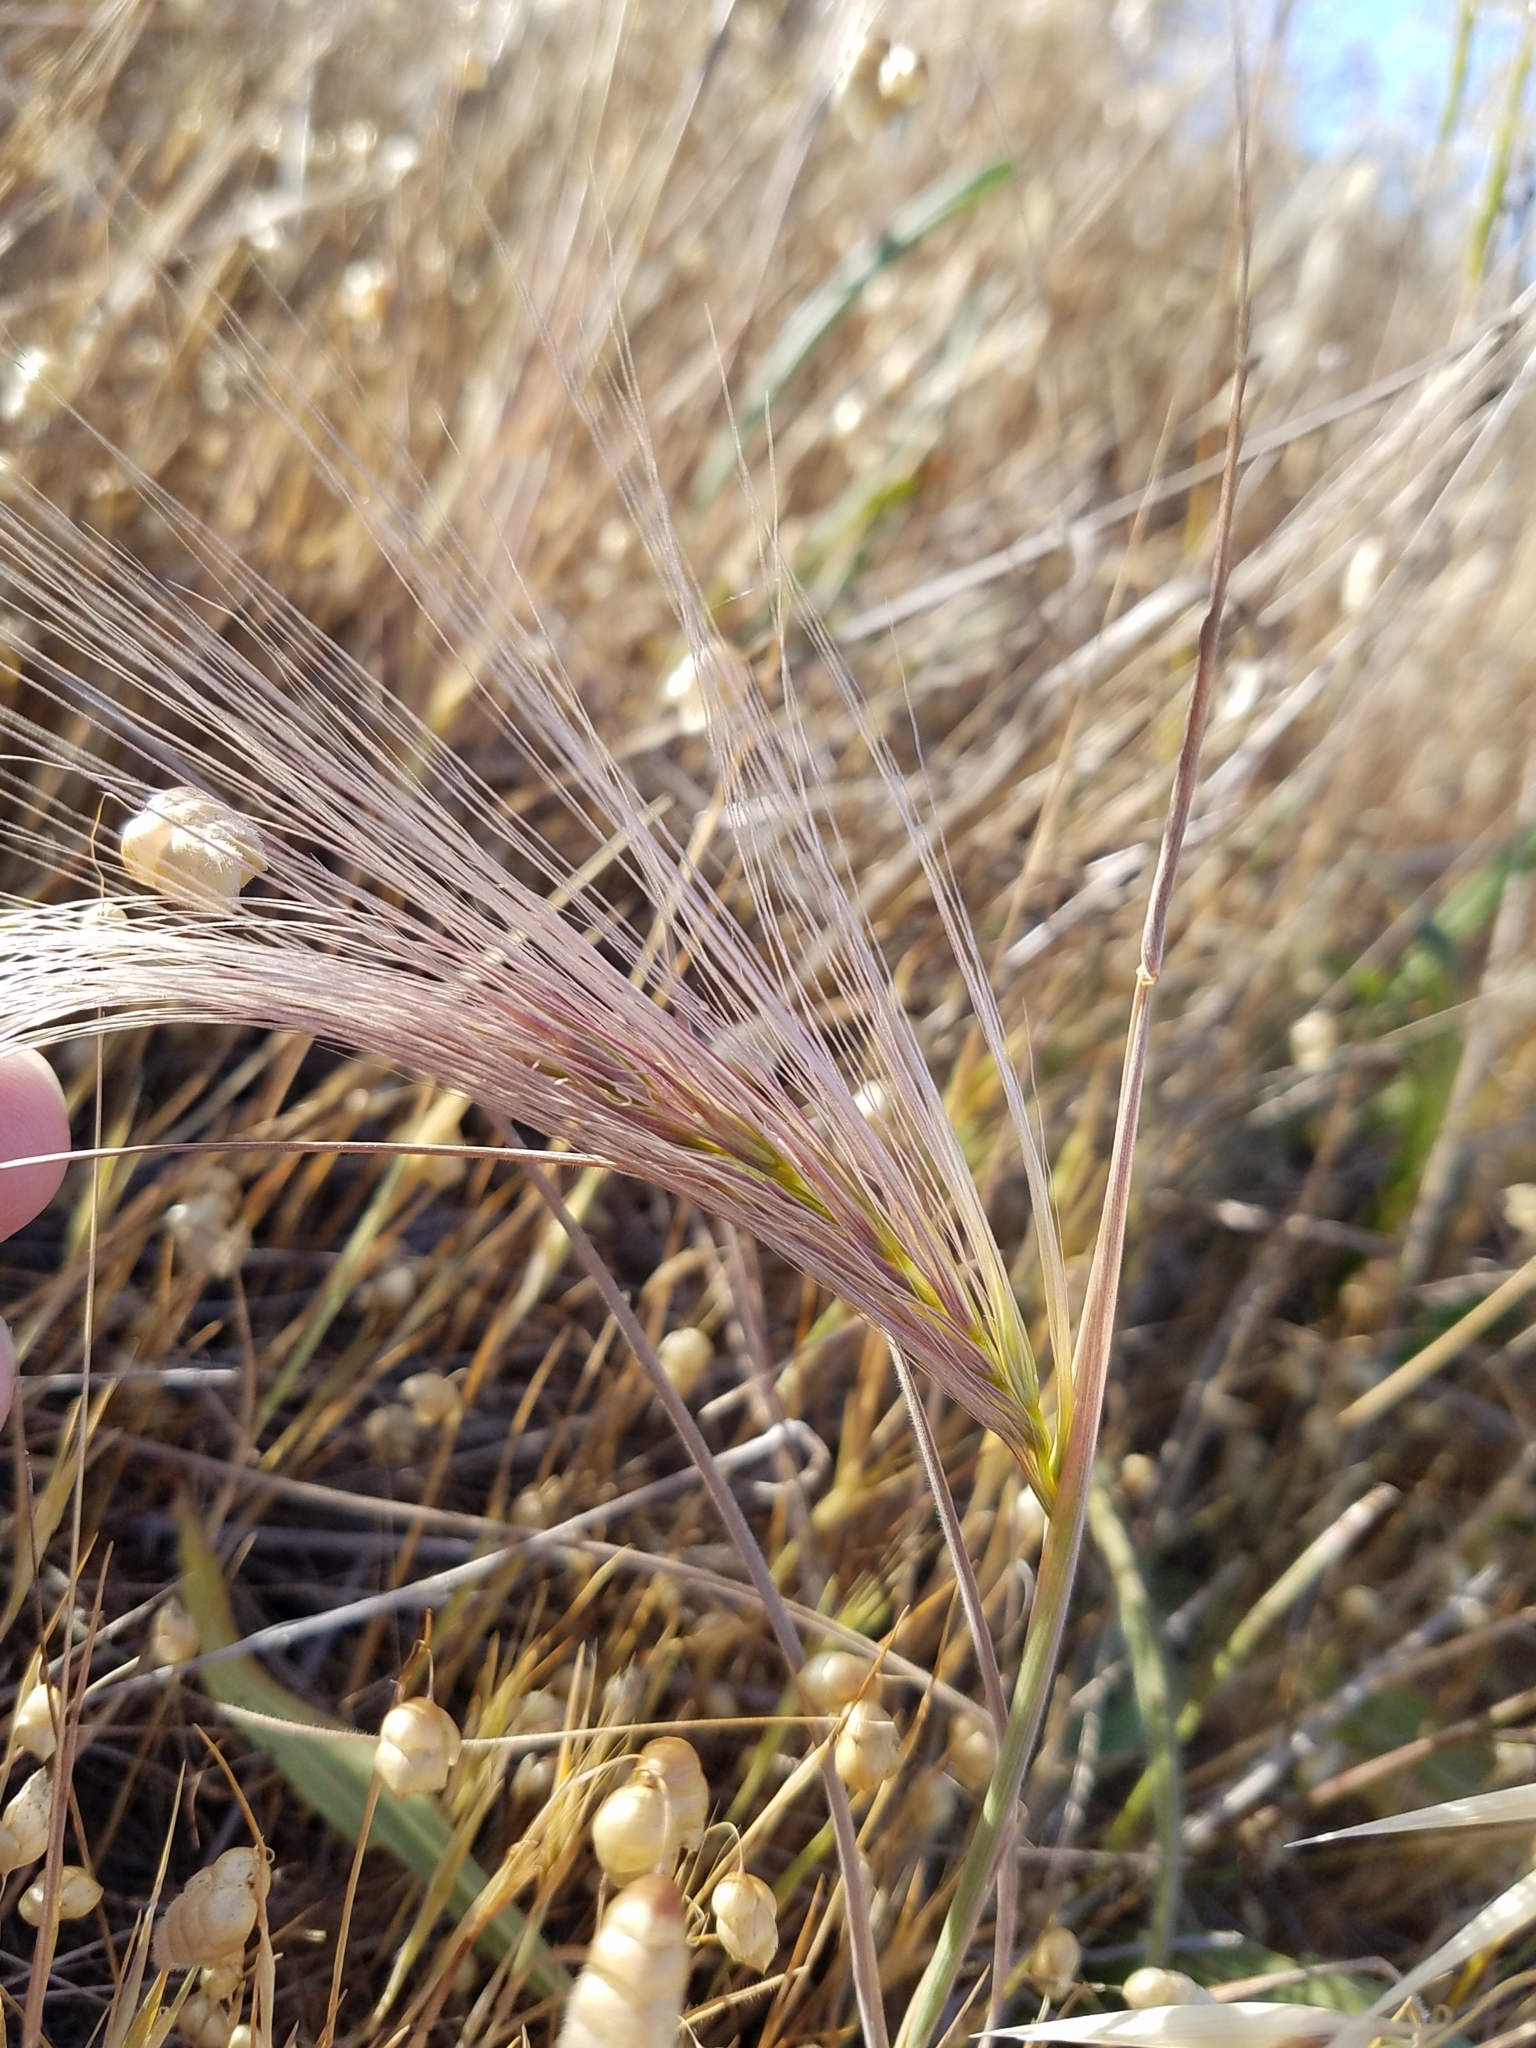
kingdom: Plantae
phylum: Tracheophyta
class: Liliopsida
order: Poales
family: Poaceae
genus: Elymus
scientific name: Elymus multisetus
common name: Big squirreltail
